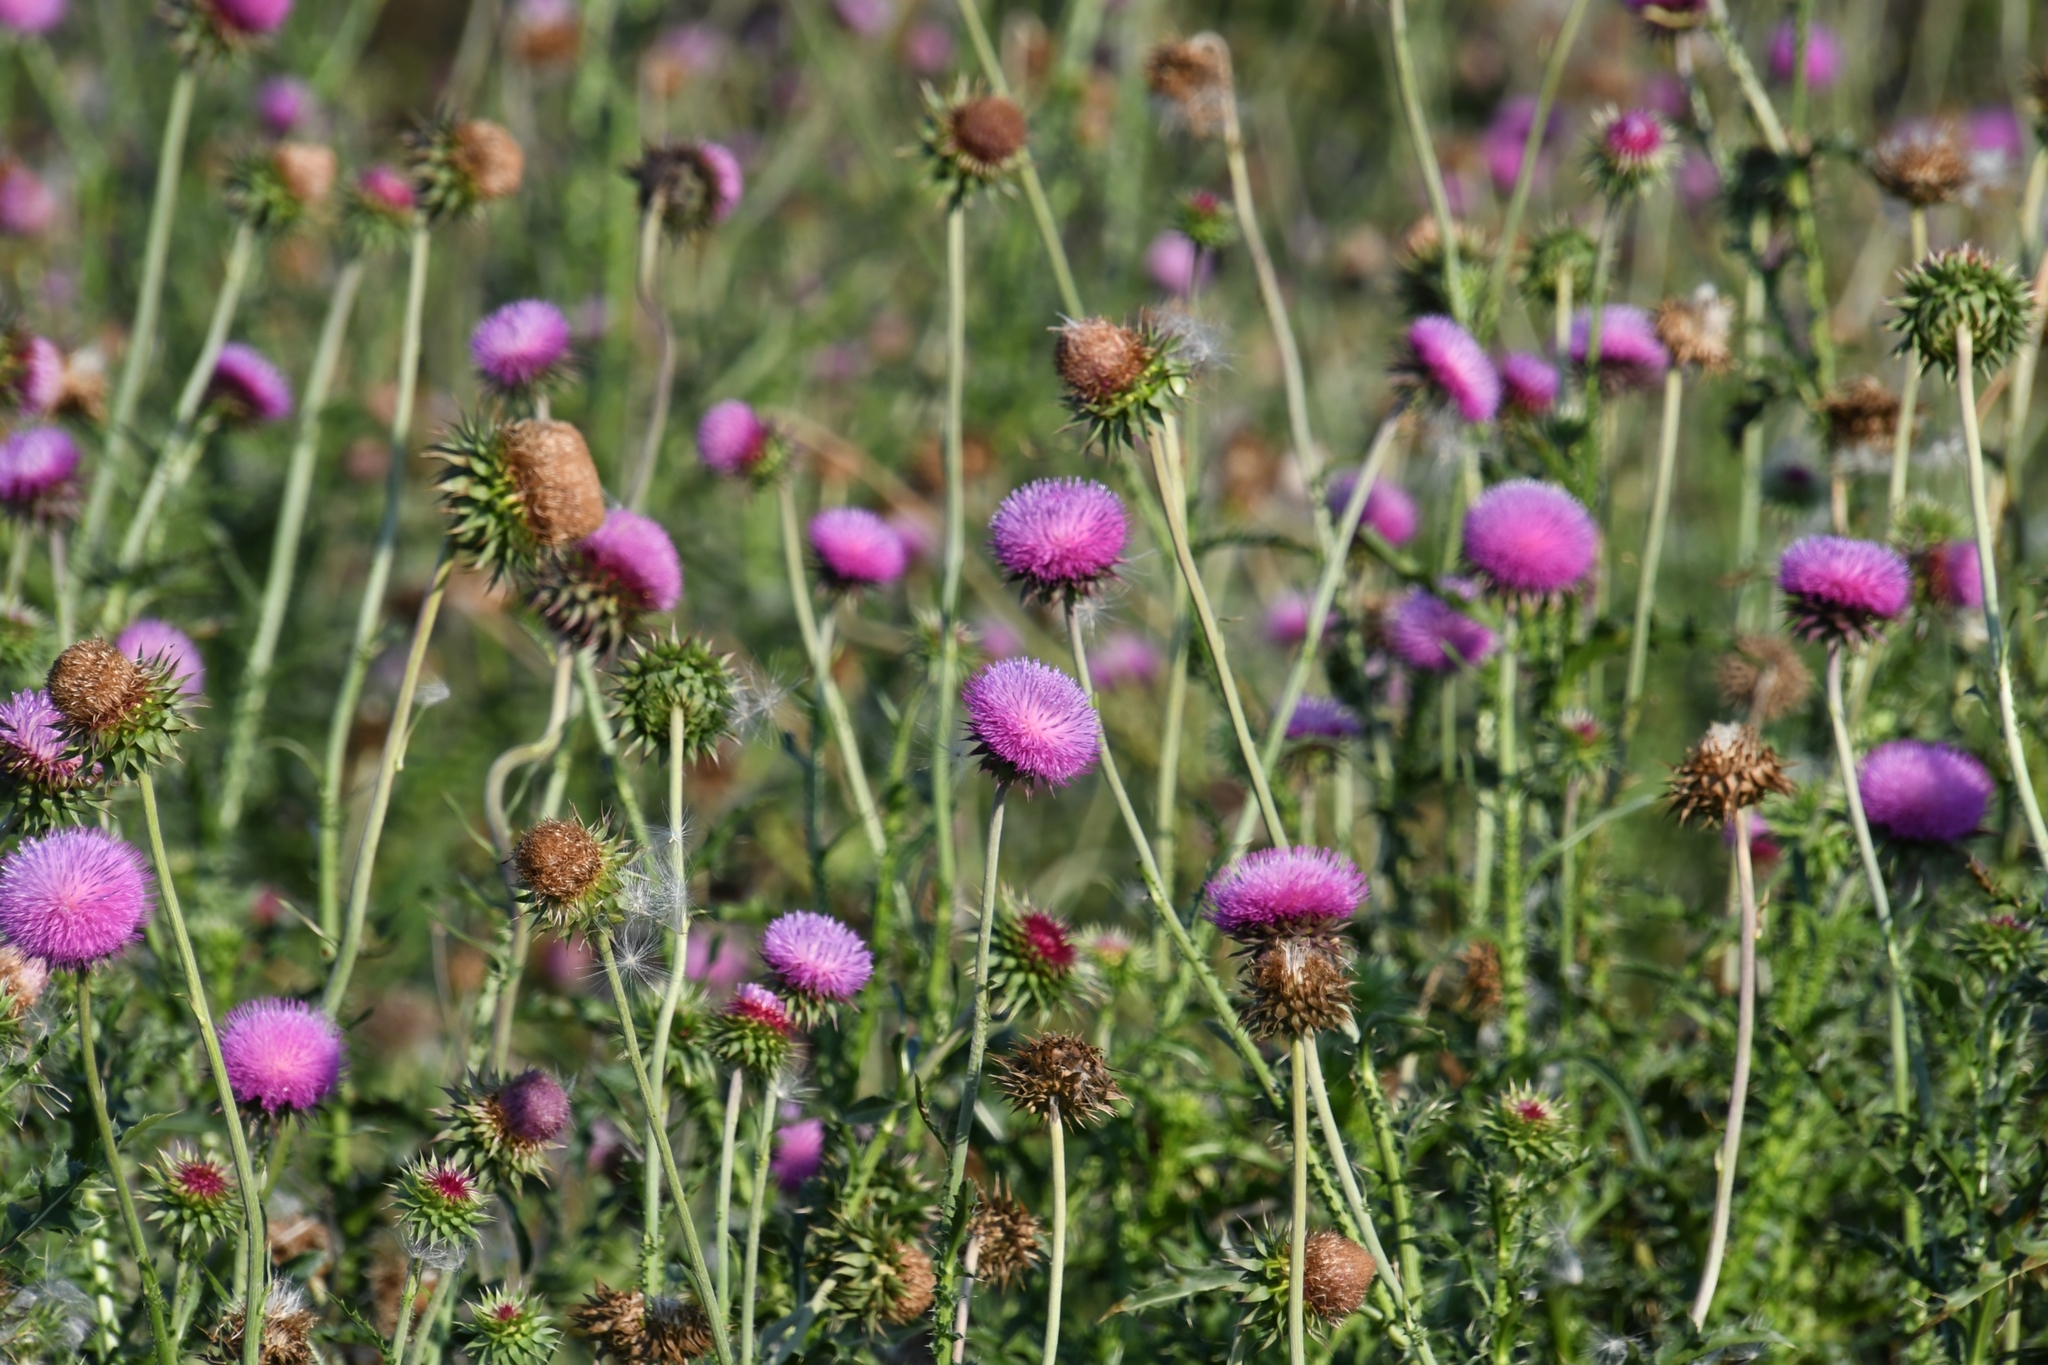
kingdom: Plantae
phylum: Tracheophyta
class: Magnoliopsida
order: Asterales
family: Asteraceae
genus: Carduus
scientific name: Carduus nutans
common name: Musk thistle
